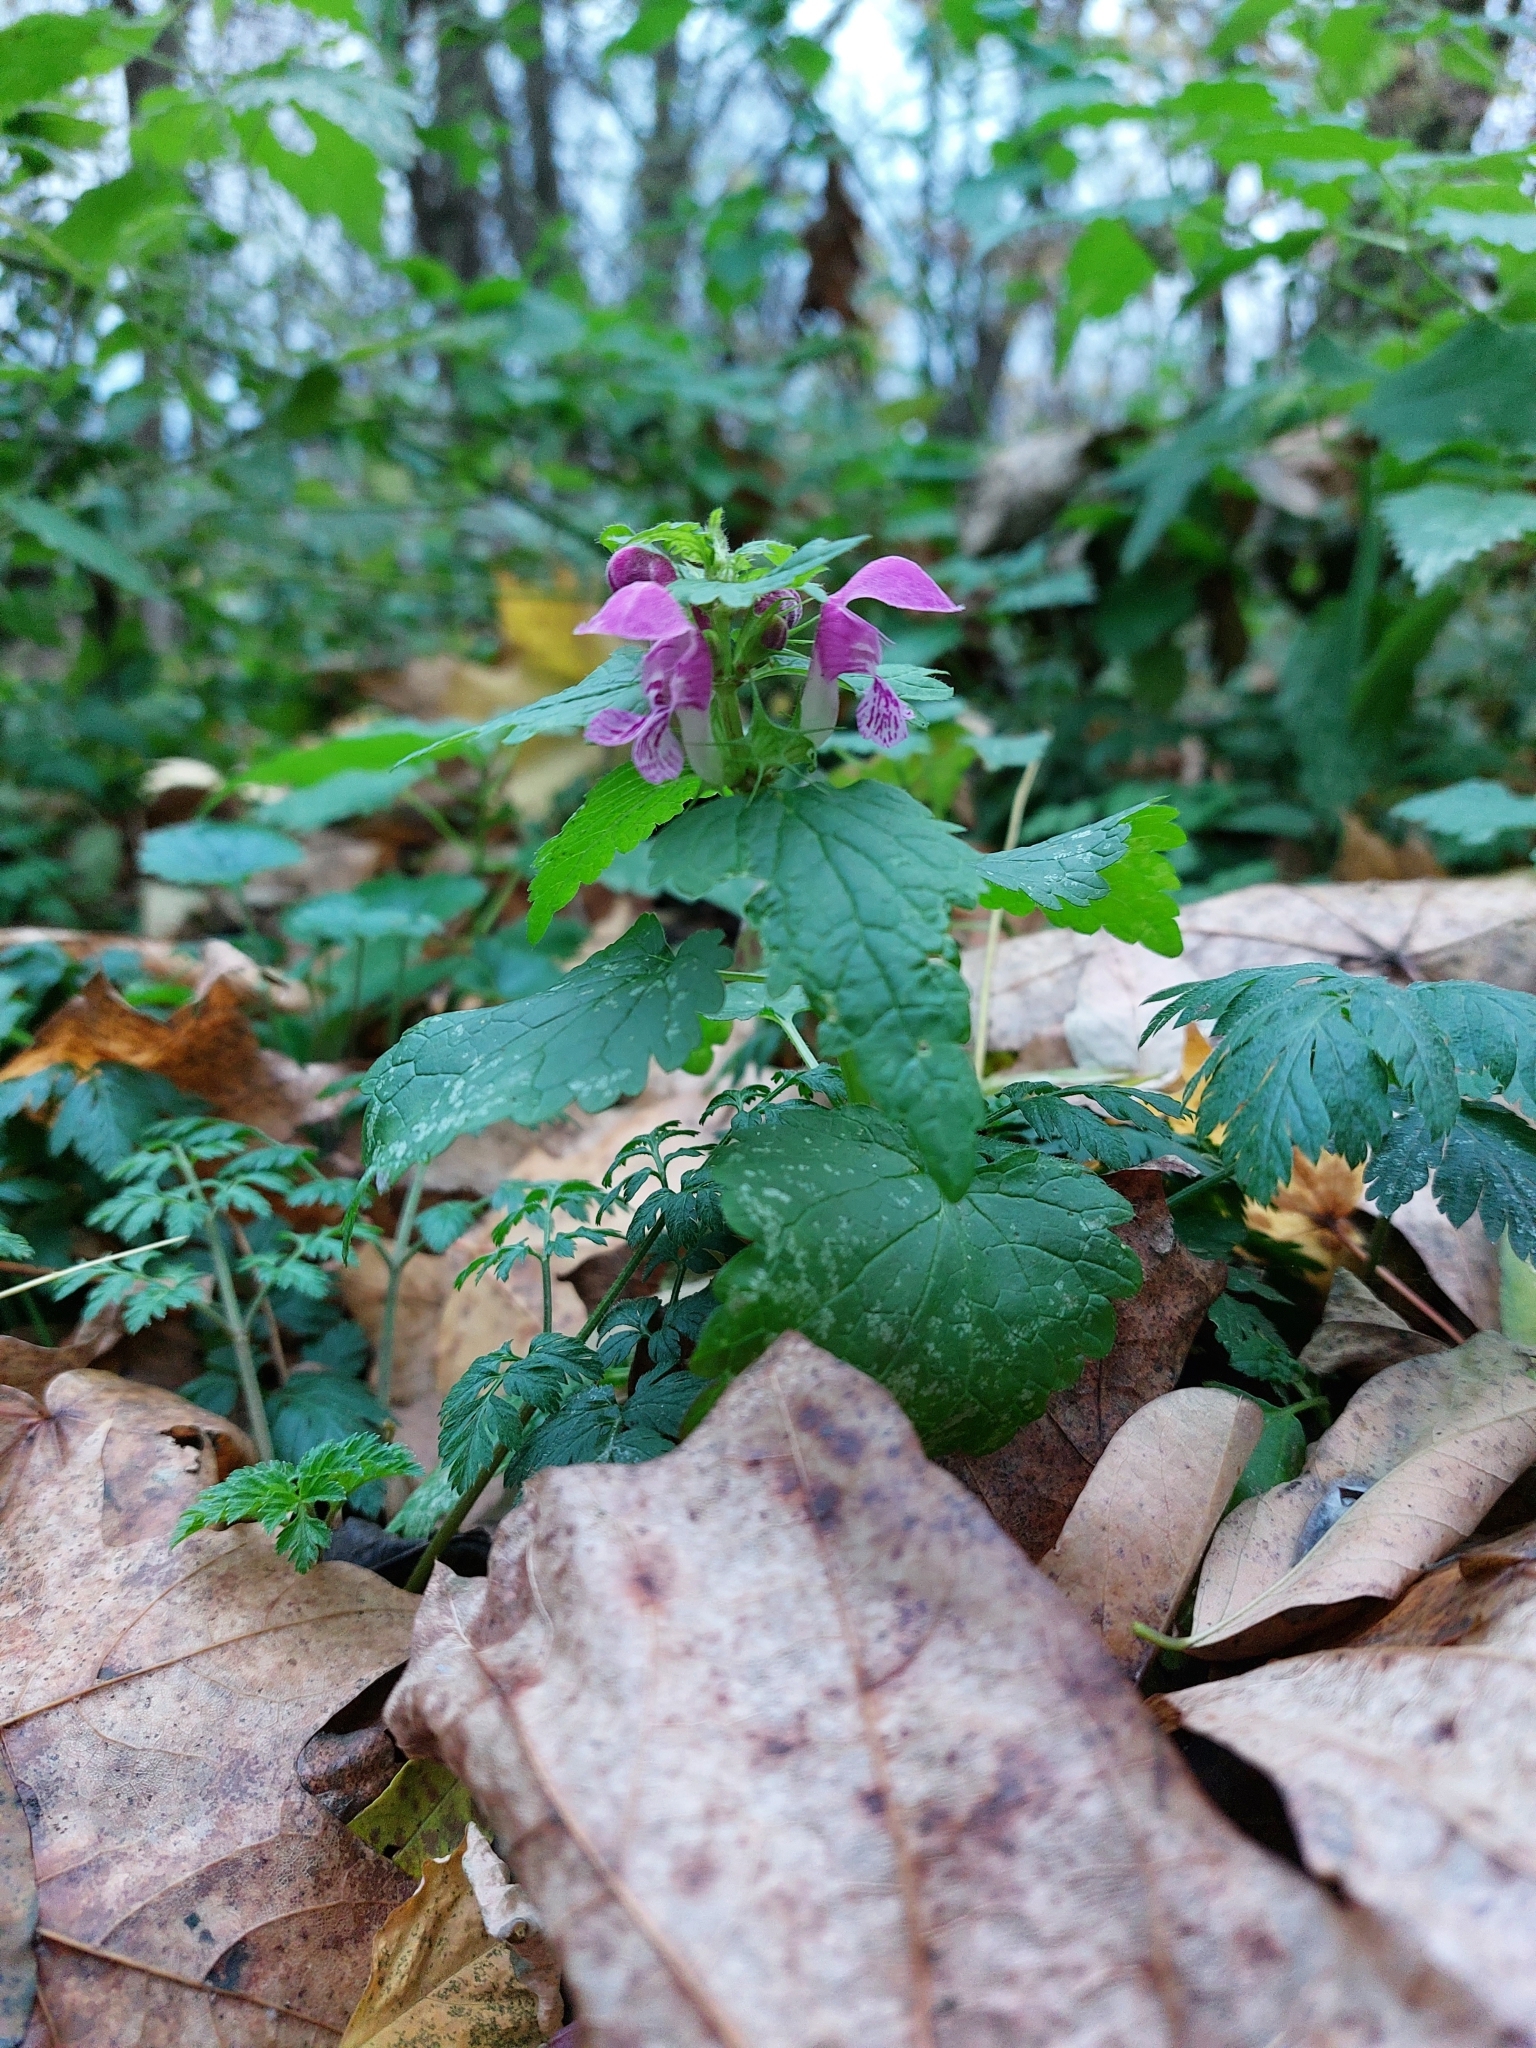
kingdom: Plantae
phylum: Tracheophyta
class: Magnoliopsida
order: Lamiales
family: Lamiaceae
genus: Lamium
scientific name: Lamium maculatum
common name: Spotted dead-nettle
